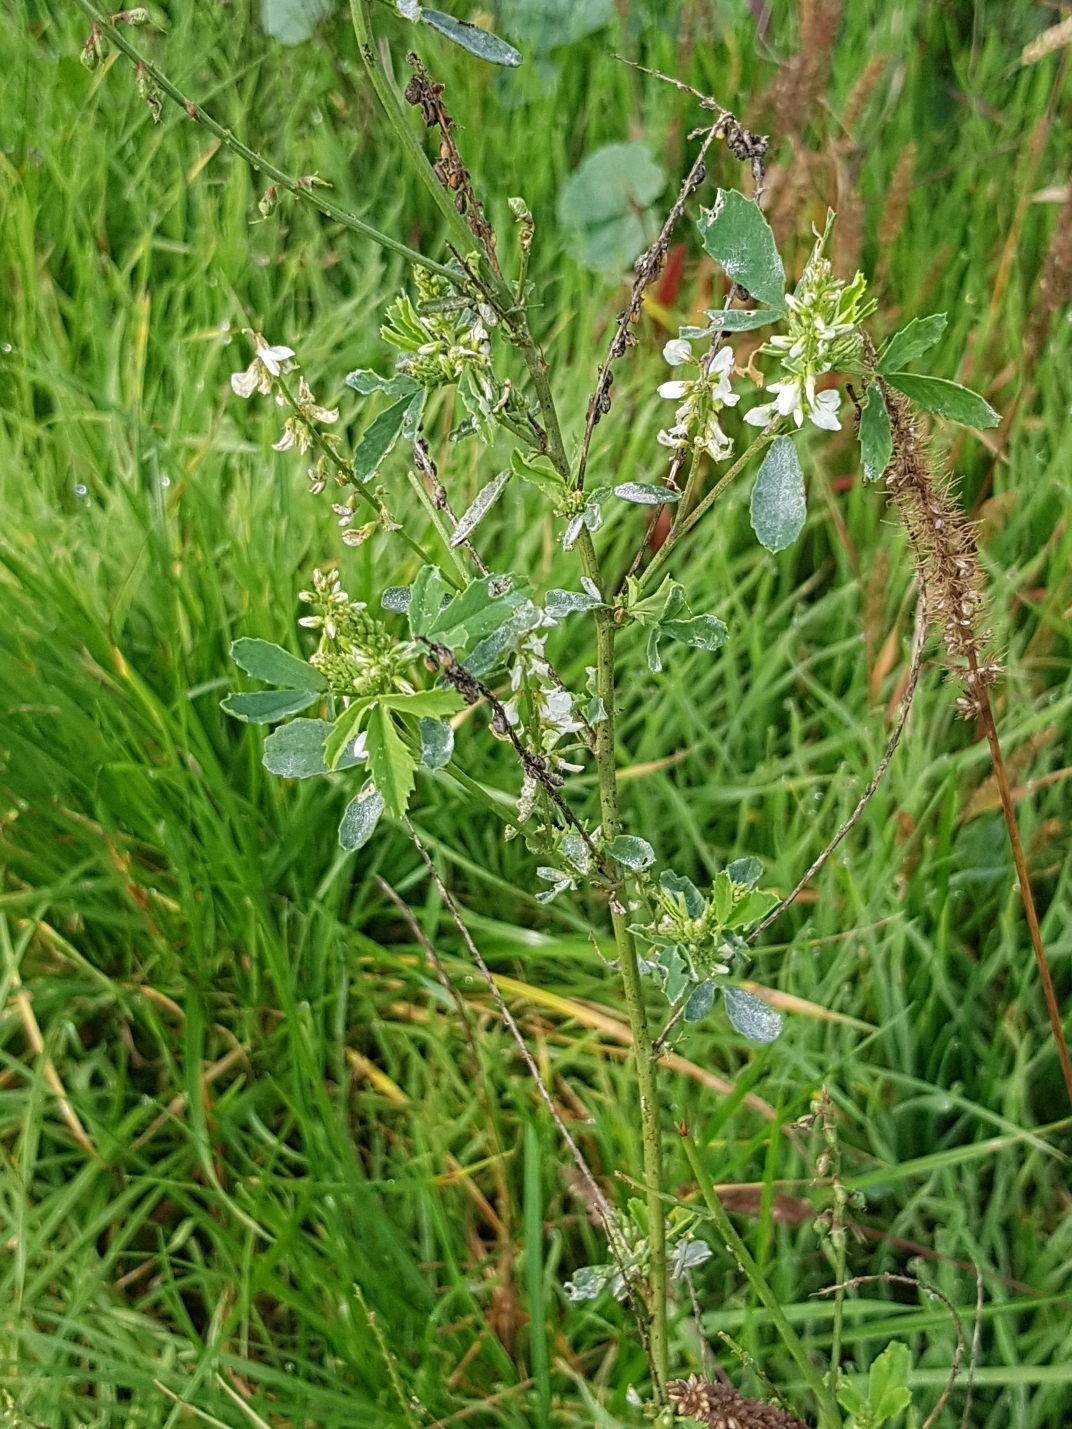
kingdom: Plantae
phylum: Tracheophyta
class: Magnoliopsida
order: Fabales
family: Fabaceae
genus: Melilotus
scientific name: Melilotus albus
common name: White melilot
